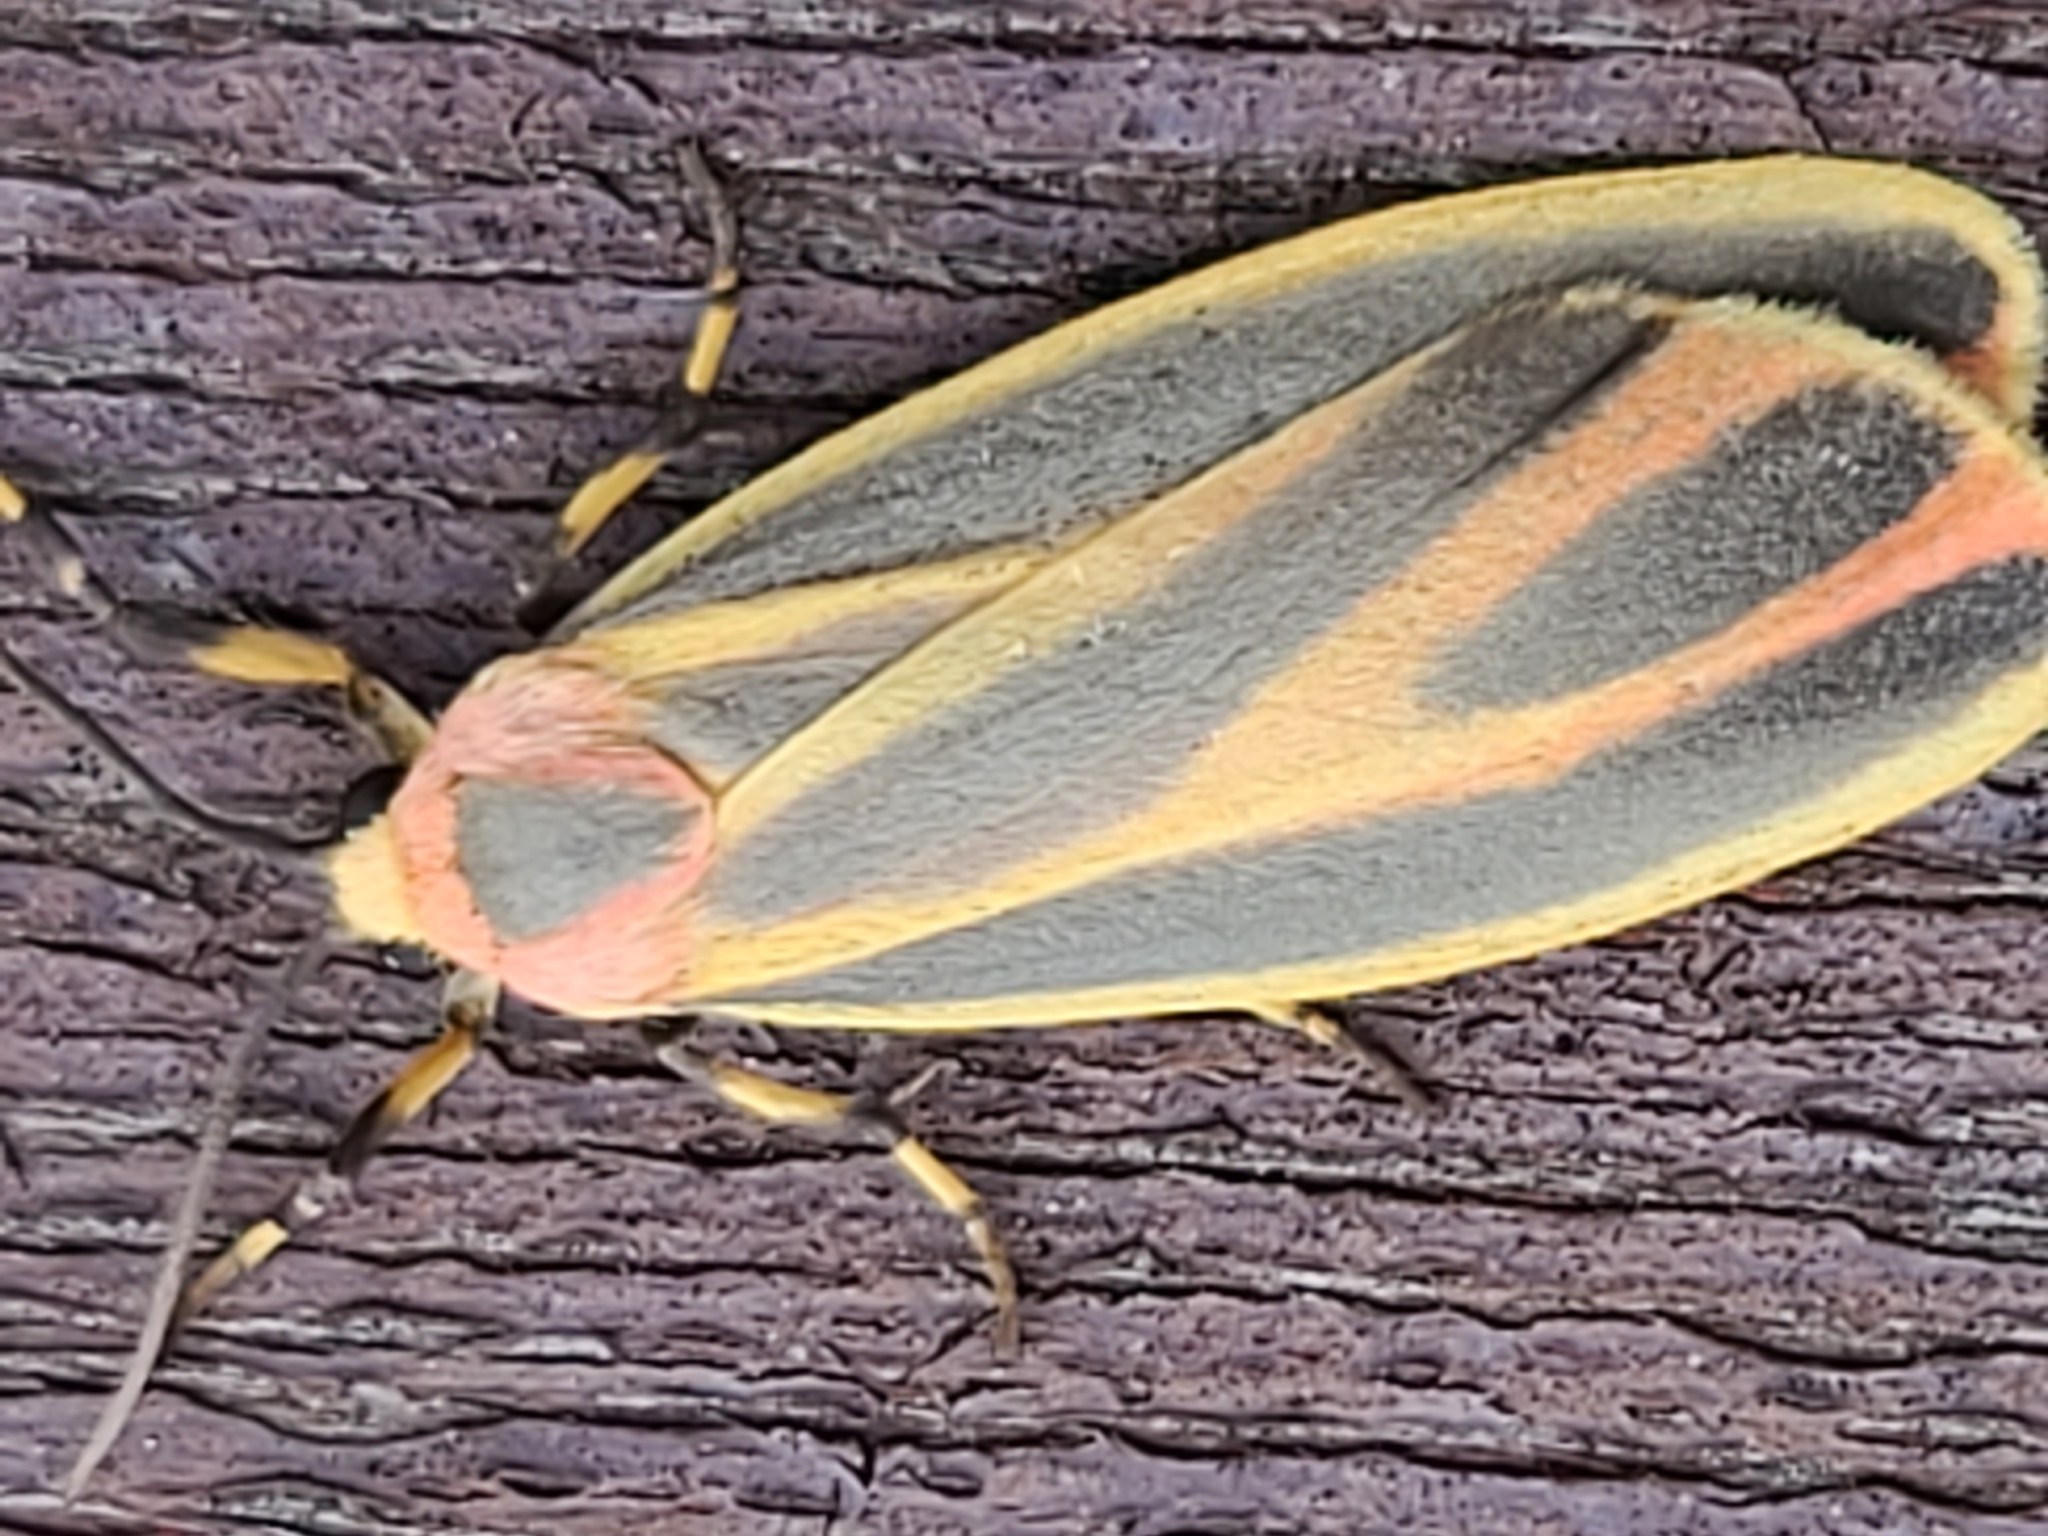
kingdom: Animalia
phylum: Arthropoda
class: Insecta
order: Lepidoptera
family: Erebidae
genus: Hypoprepia
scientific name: Hypoprepia fucosa
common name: Painted lichen moth
